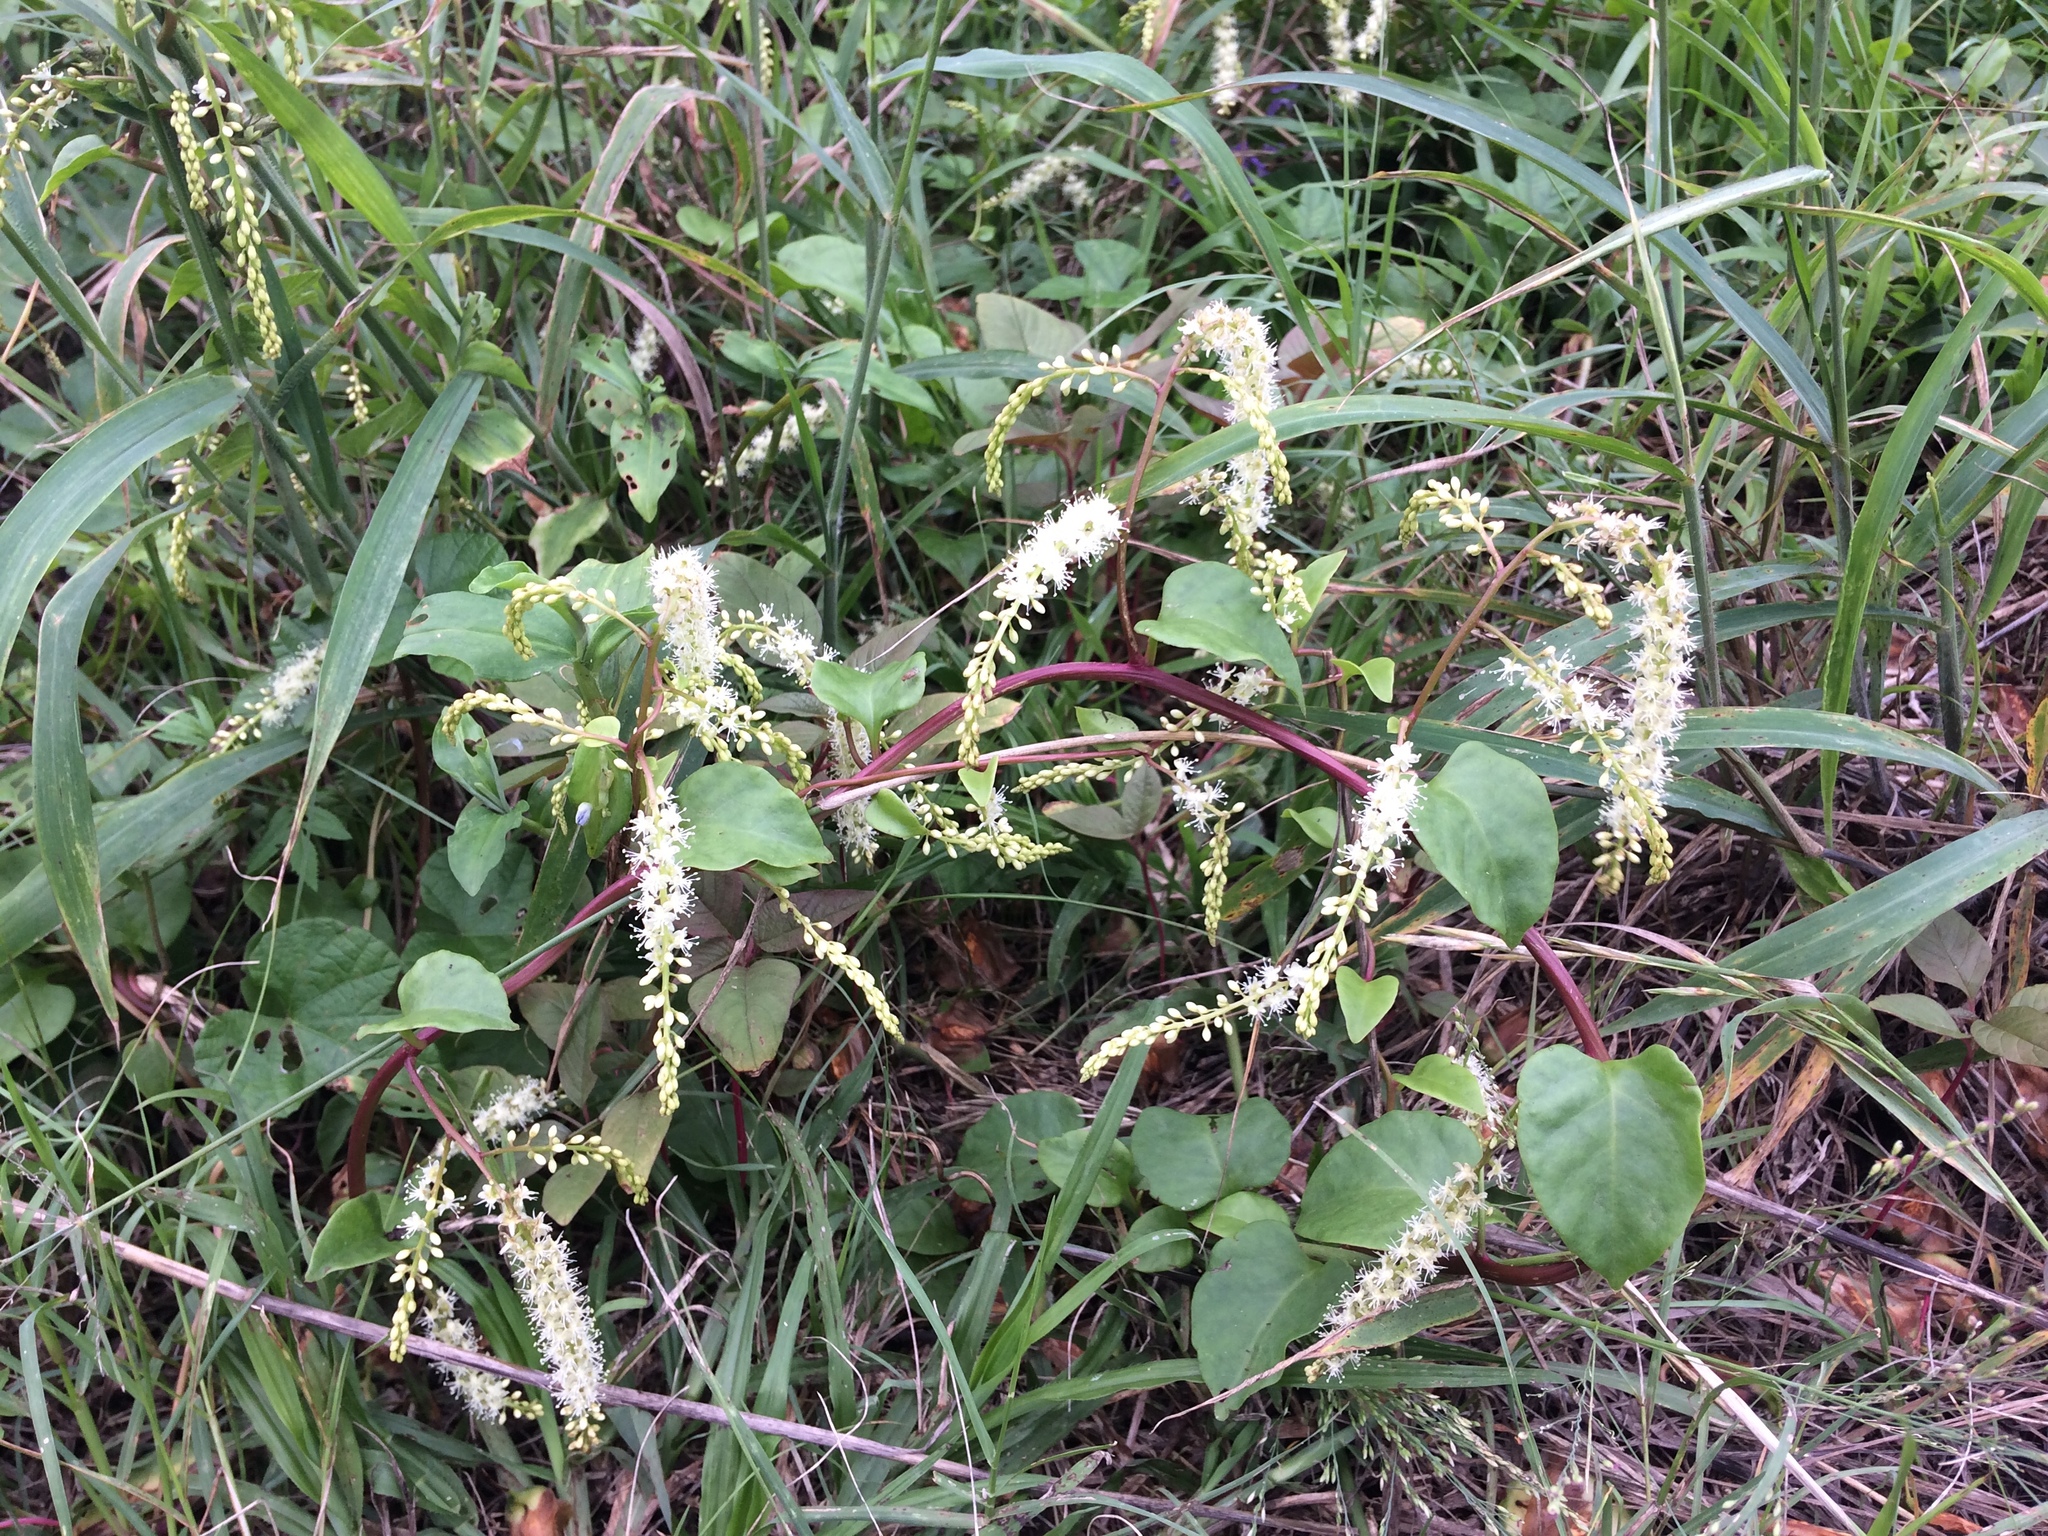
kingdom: Plantae
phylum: Tracheophyta
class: Magnoliopsida
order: Caryophyllales
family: Basellaceae
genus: Anredera
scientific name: Anredera cordifolia
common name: Heartleaf madeiravine
